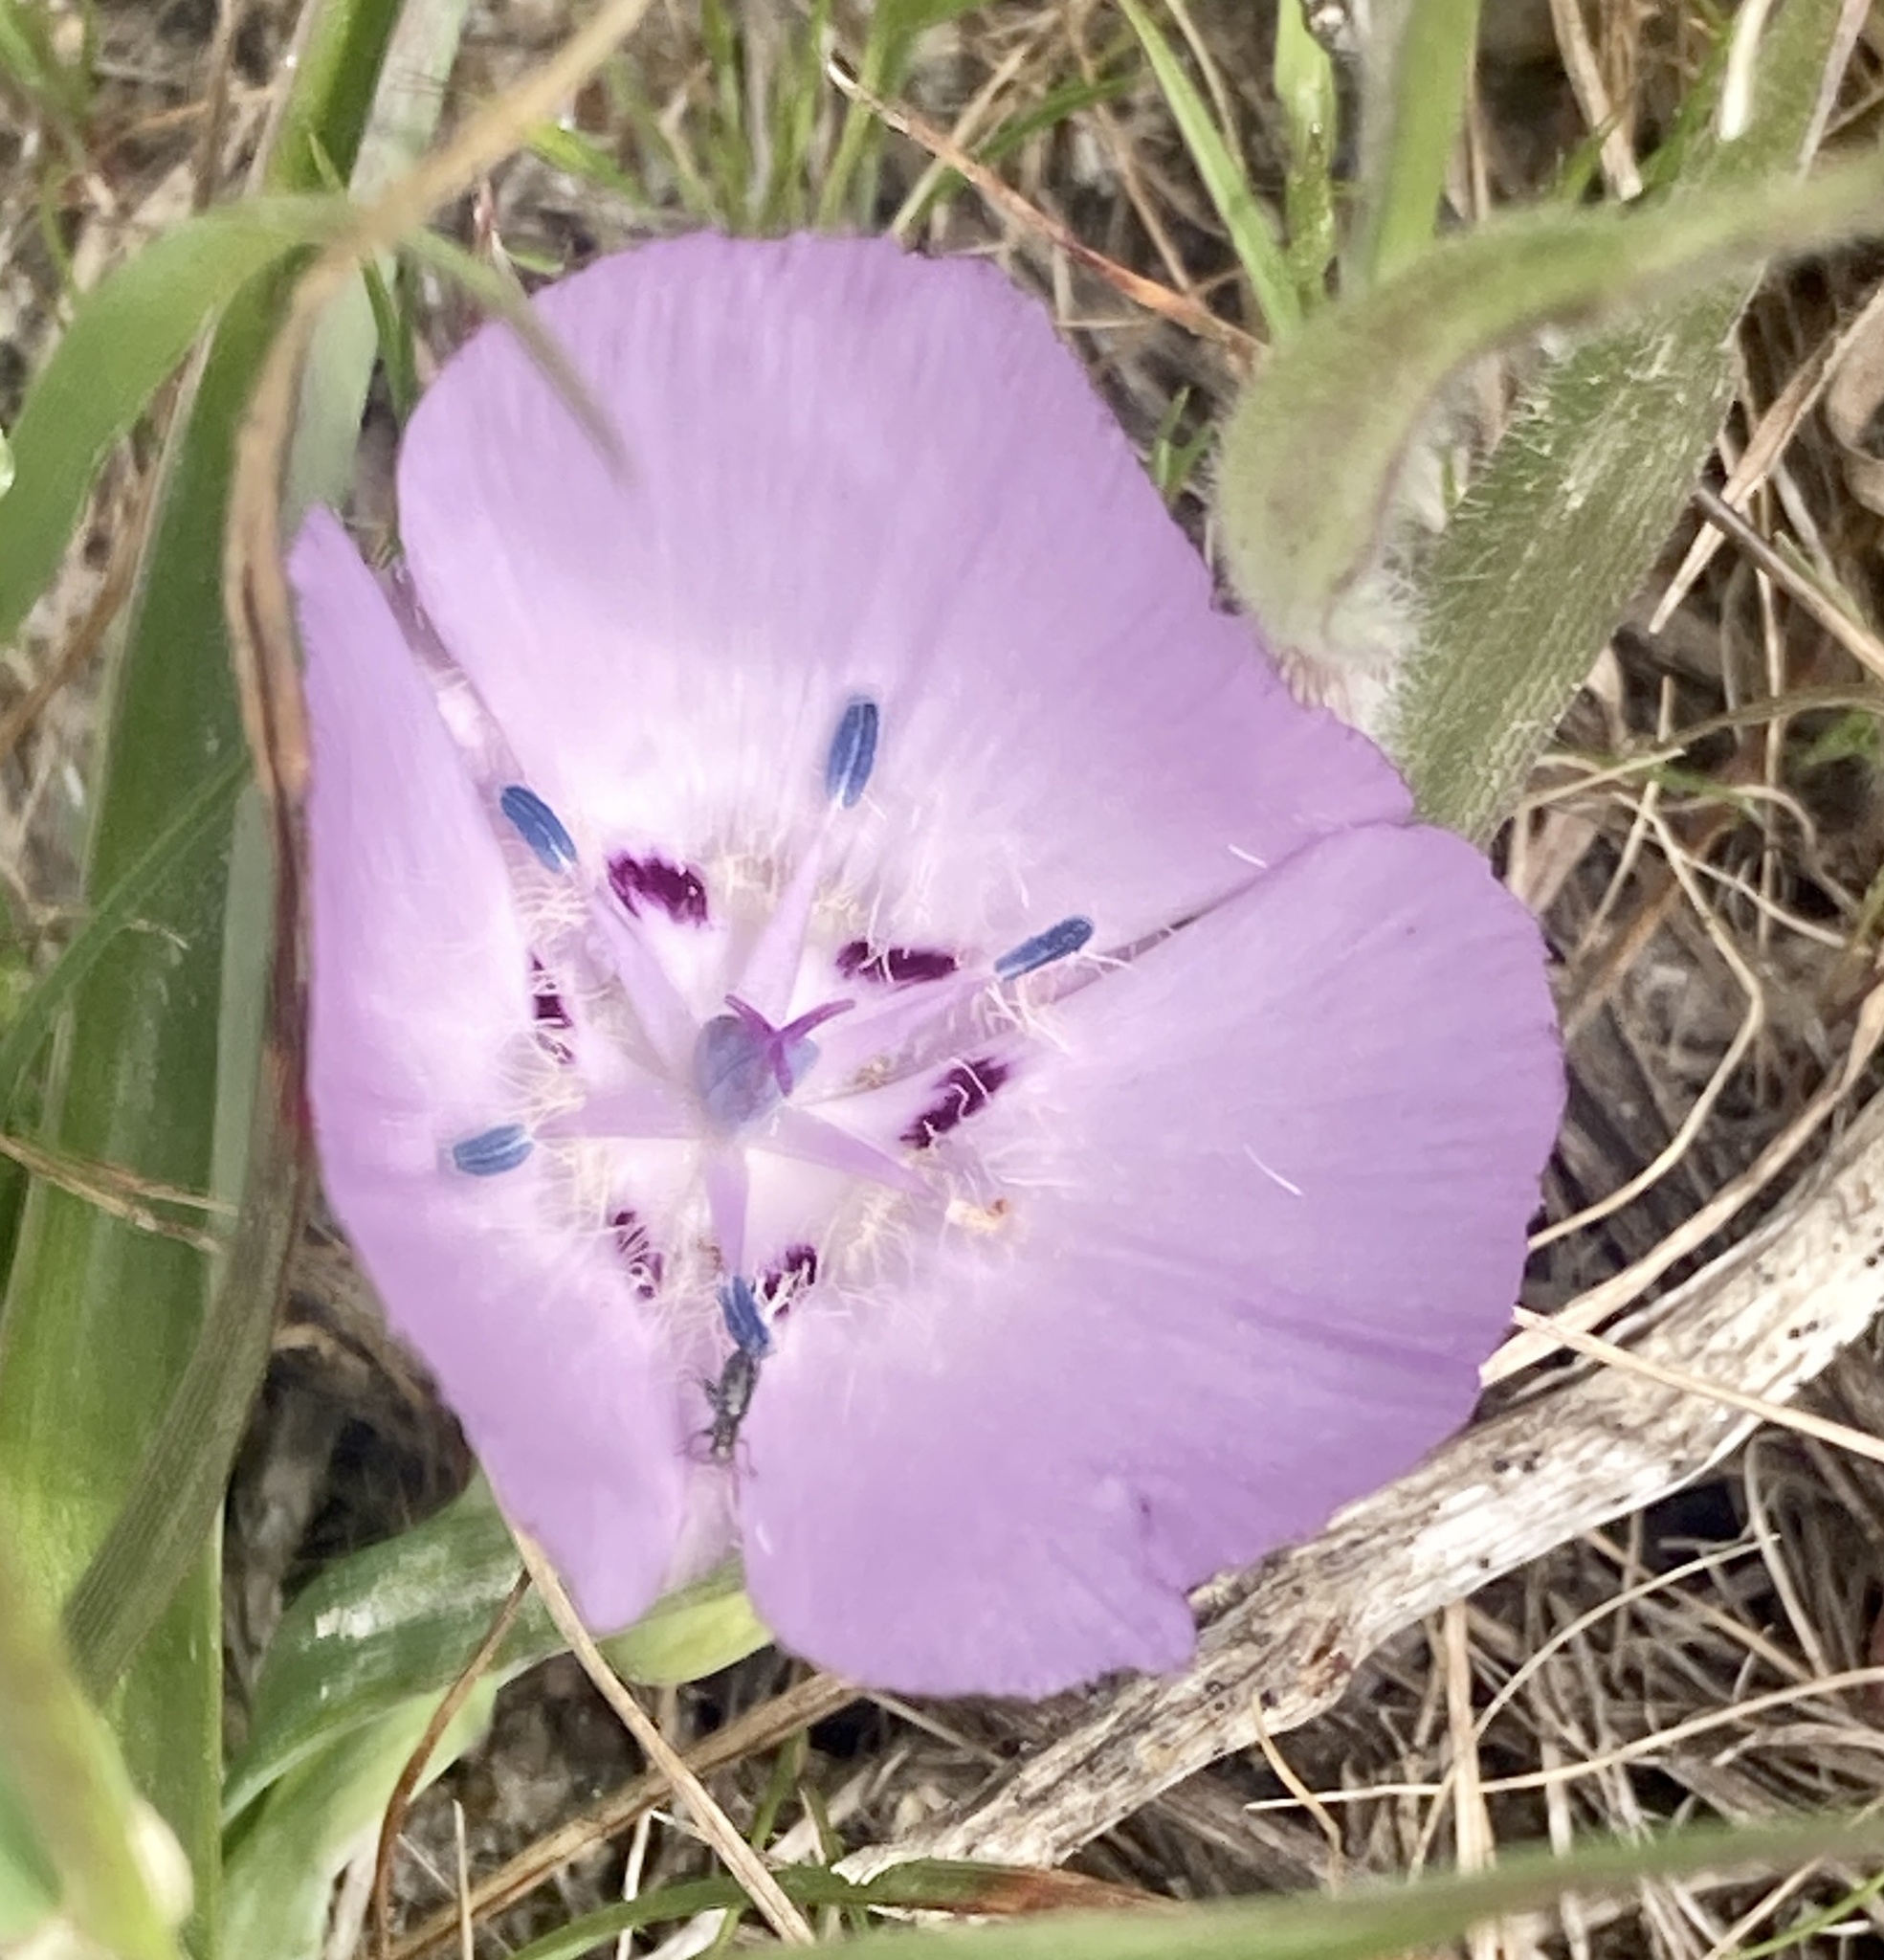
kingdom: Plantae
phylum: Tracheophyta
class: Liliopsida
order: Liliales
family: Liliaceae
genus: Calochortus
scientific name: Calochortus uniflorus
